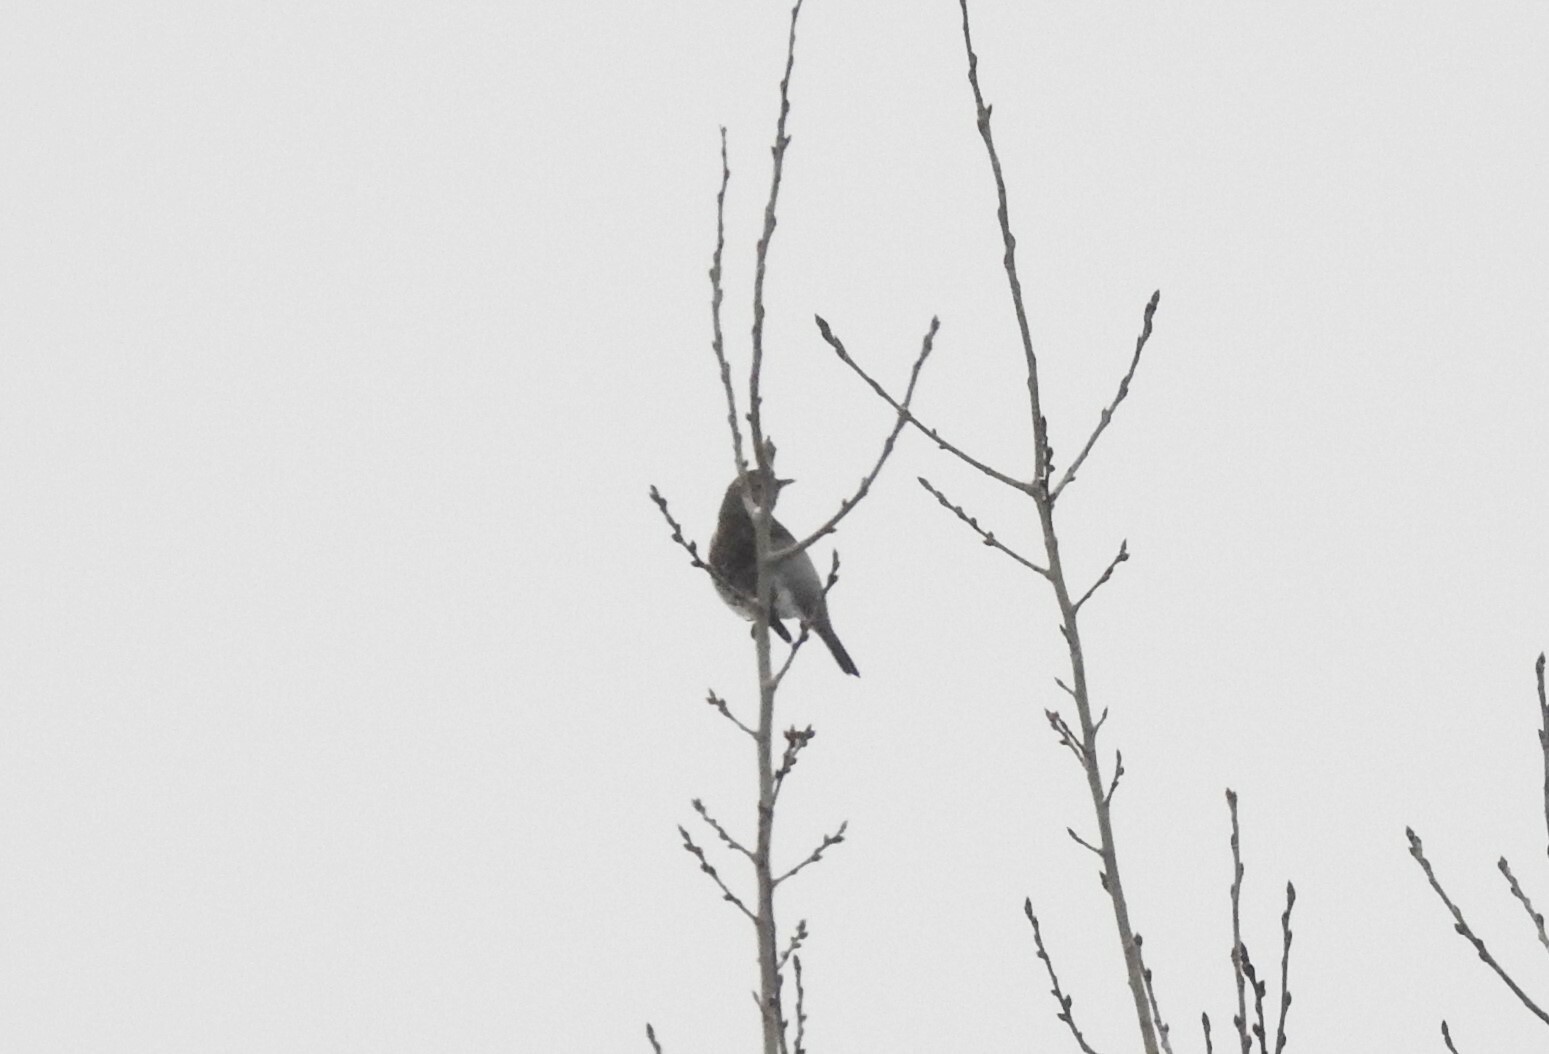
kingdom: Animalia
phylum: Chordata
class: Aves
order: Passeriformes
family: Turdidae
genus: Turdus
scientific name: Turdus pilaris
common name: Fieldfare
